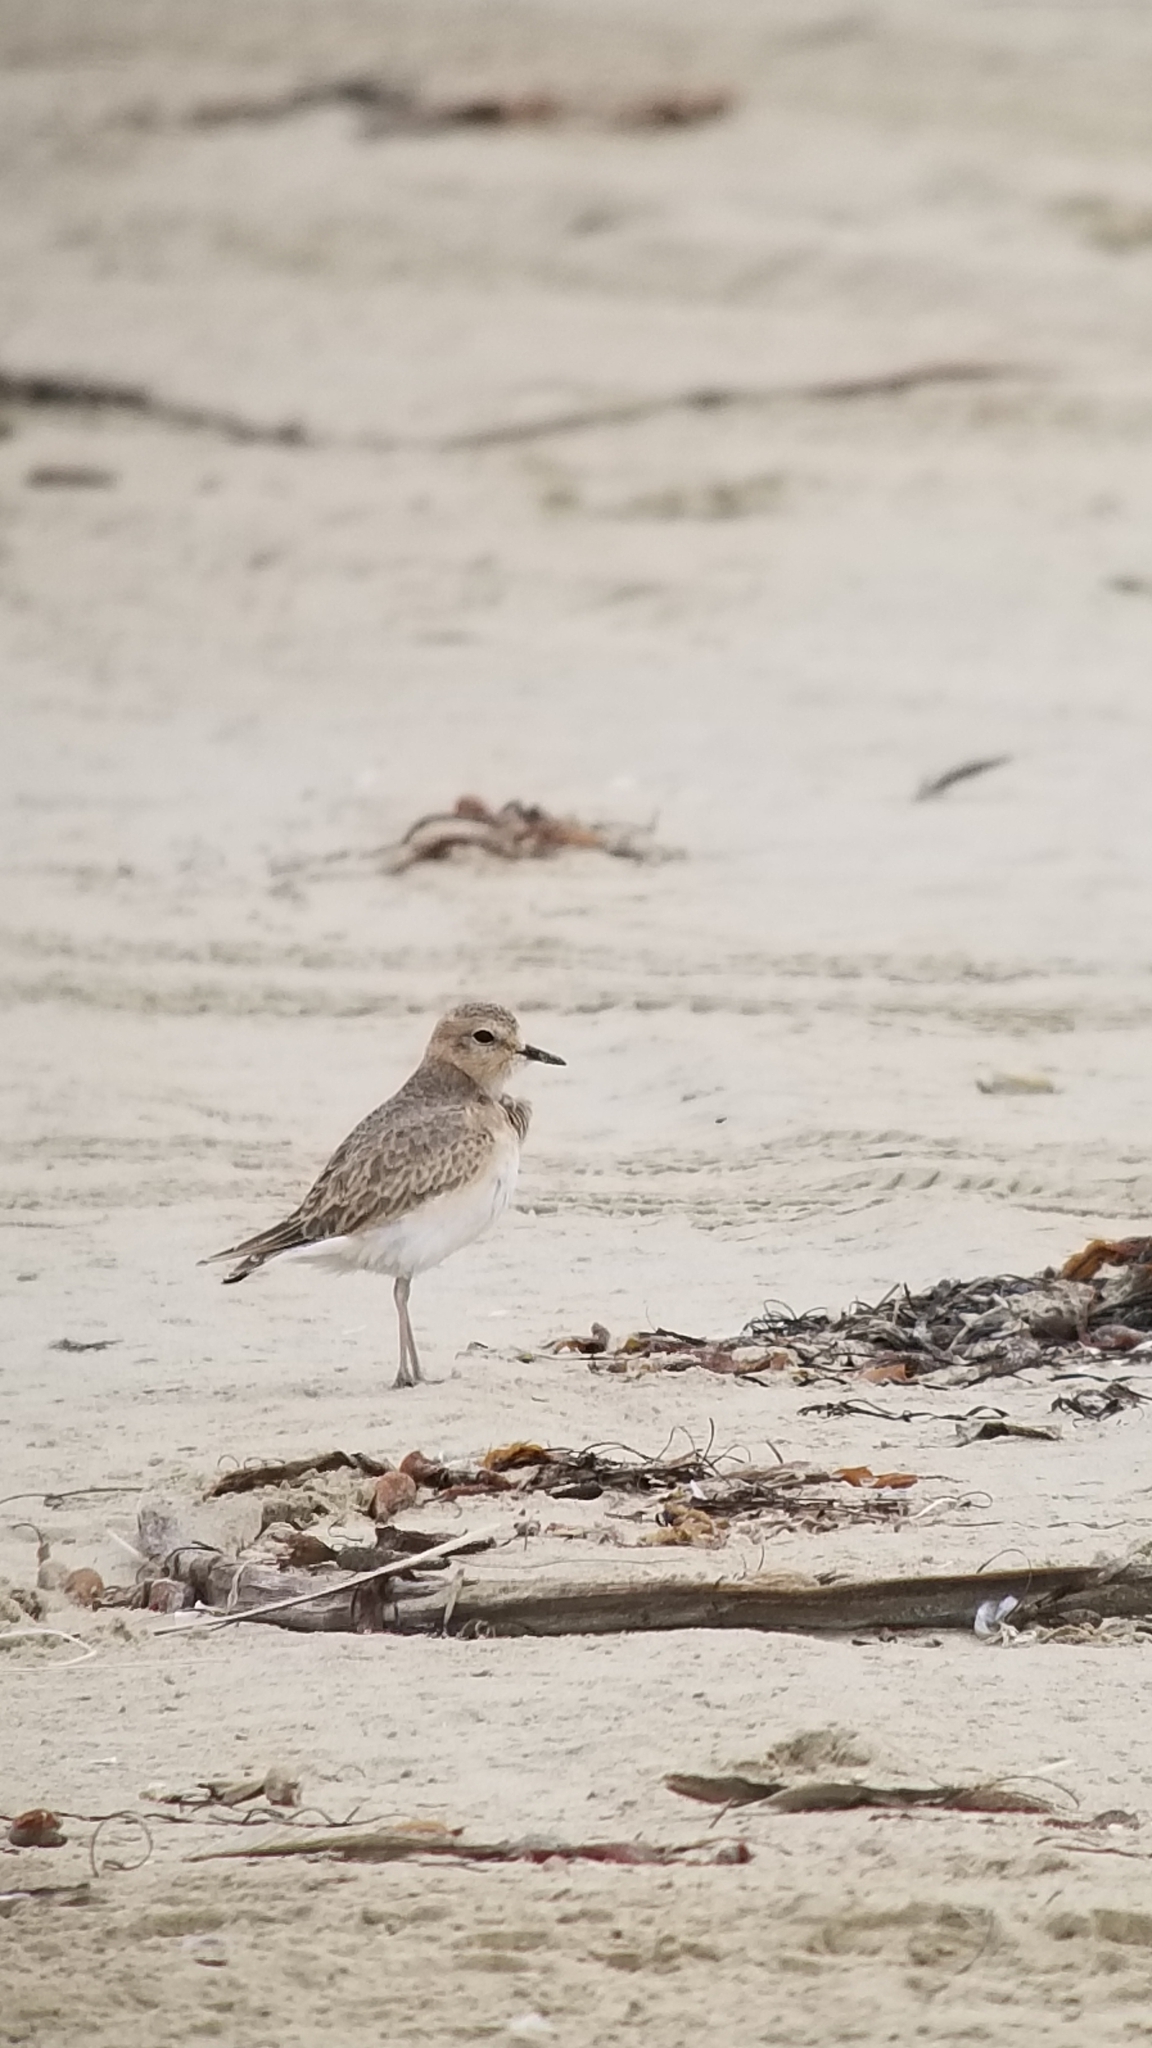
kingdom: Animalia
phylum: Chordata
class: Aves
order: Charadriiformes
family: Charadriidae
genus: Anarhynchus
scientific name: Anarhynchus
